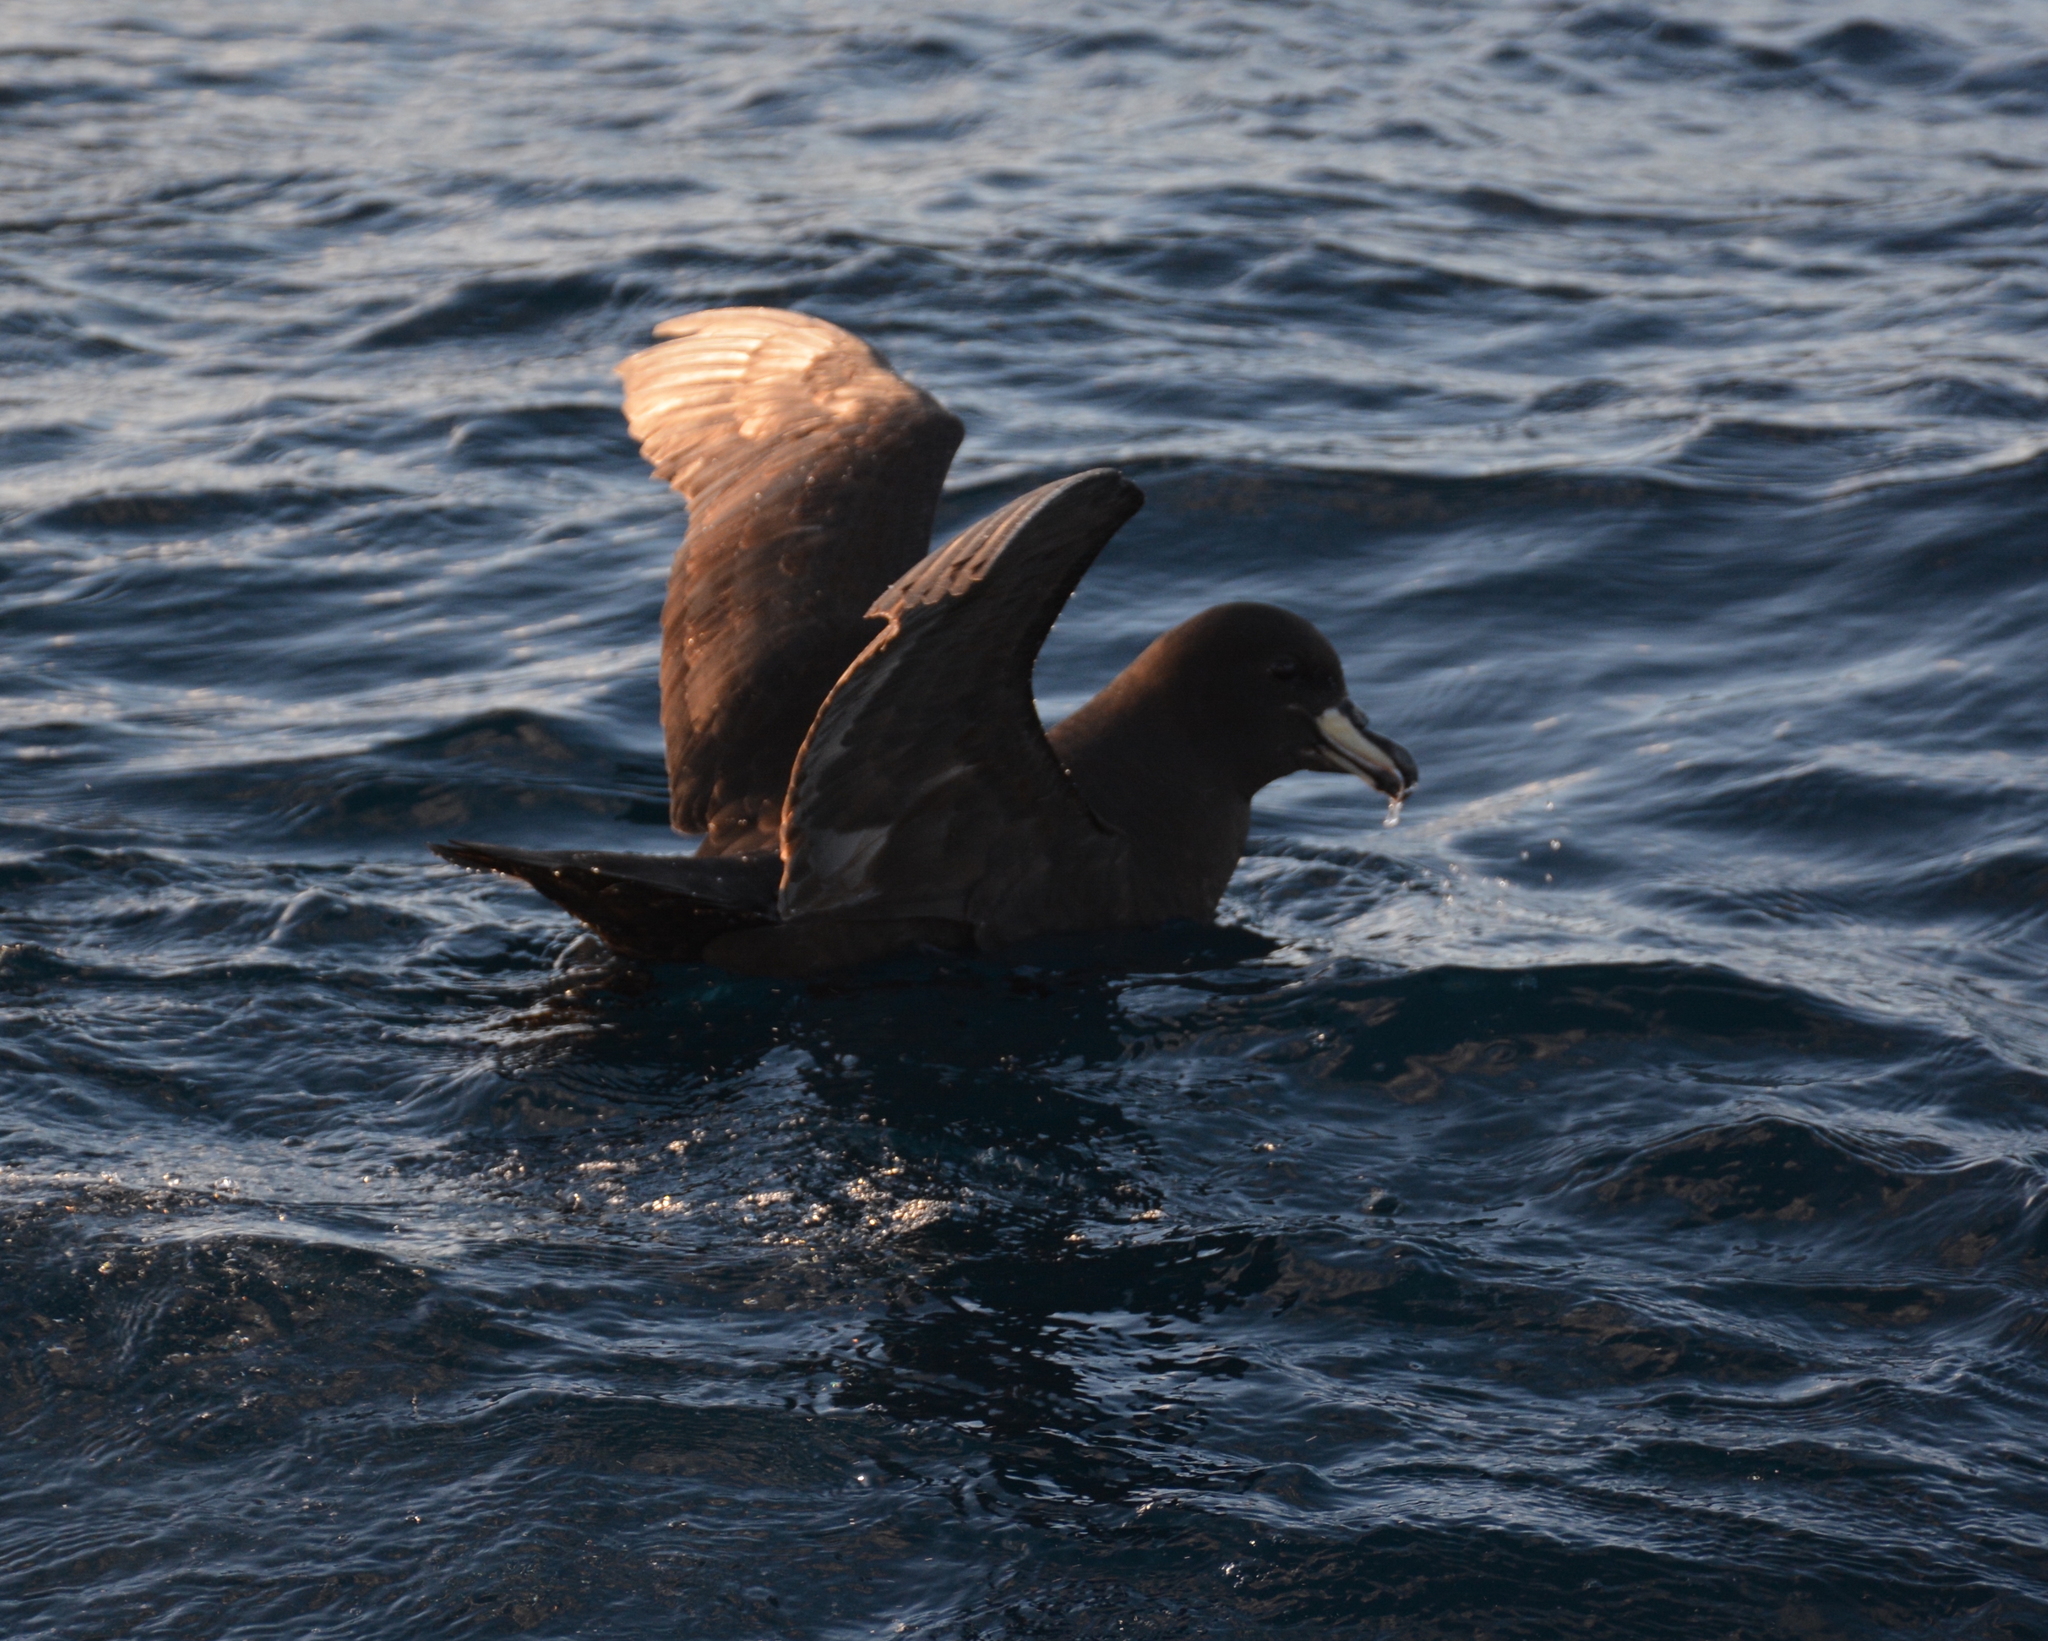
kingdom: Animalia
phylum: Chordata
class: Aves
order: Procellariiformes
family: Procellariidae
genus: Procellaria
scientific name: Procellaria westlandica
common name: Westland petrel
